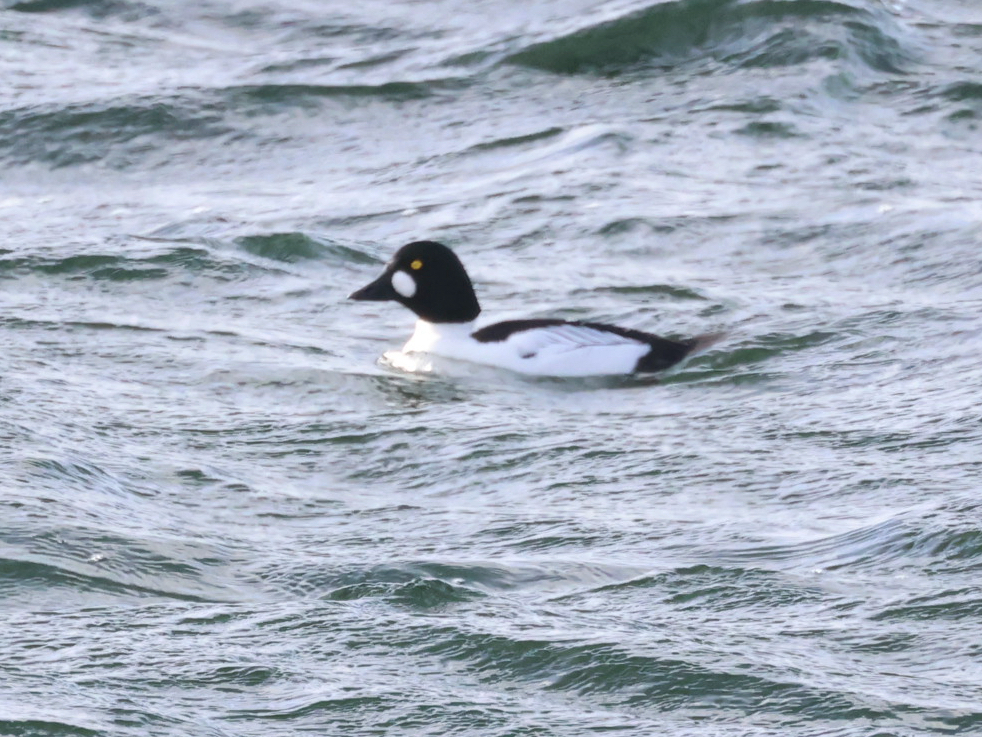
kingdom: Animalia
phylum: Chordata
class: Aves
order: Anseriformes
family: Anatidae
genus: Bucephala
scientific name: Bucephala clangula
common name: Common goldeneye
